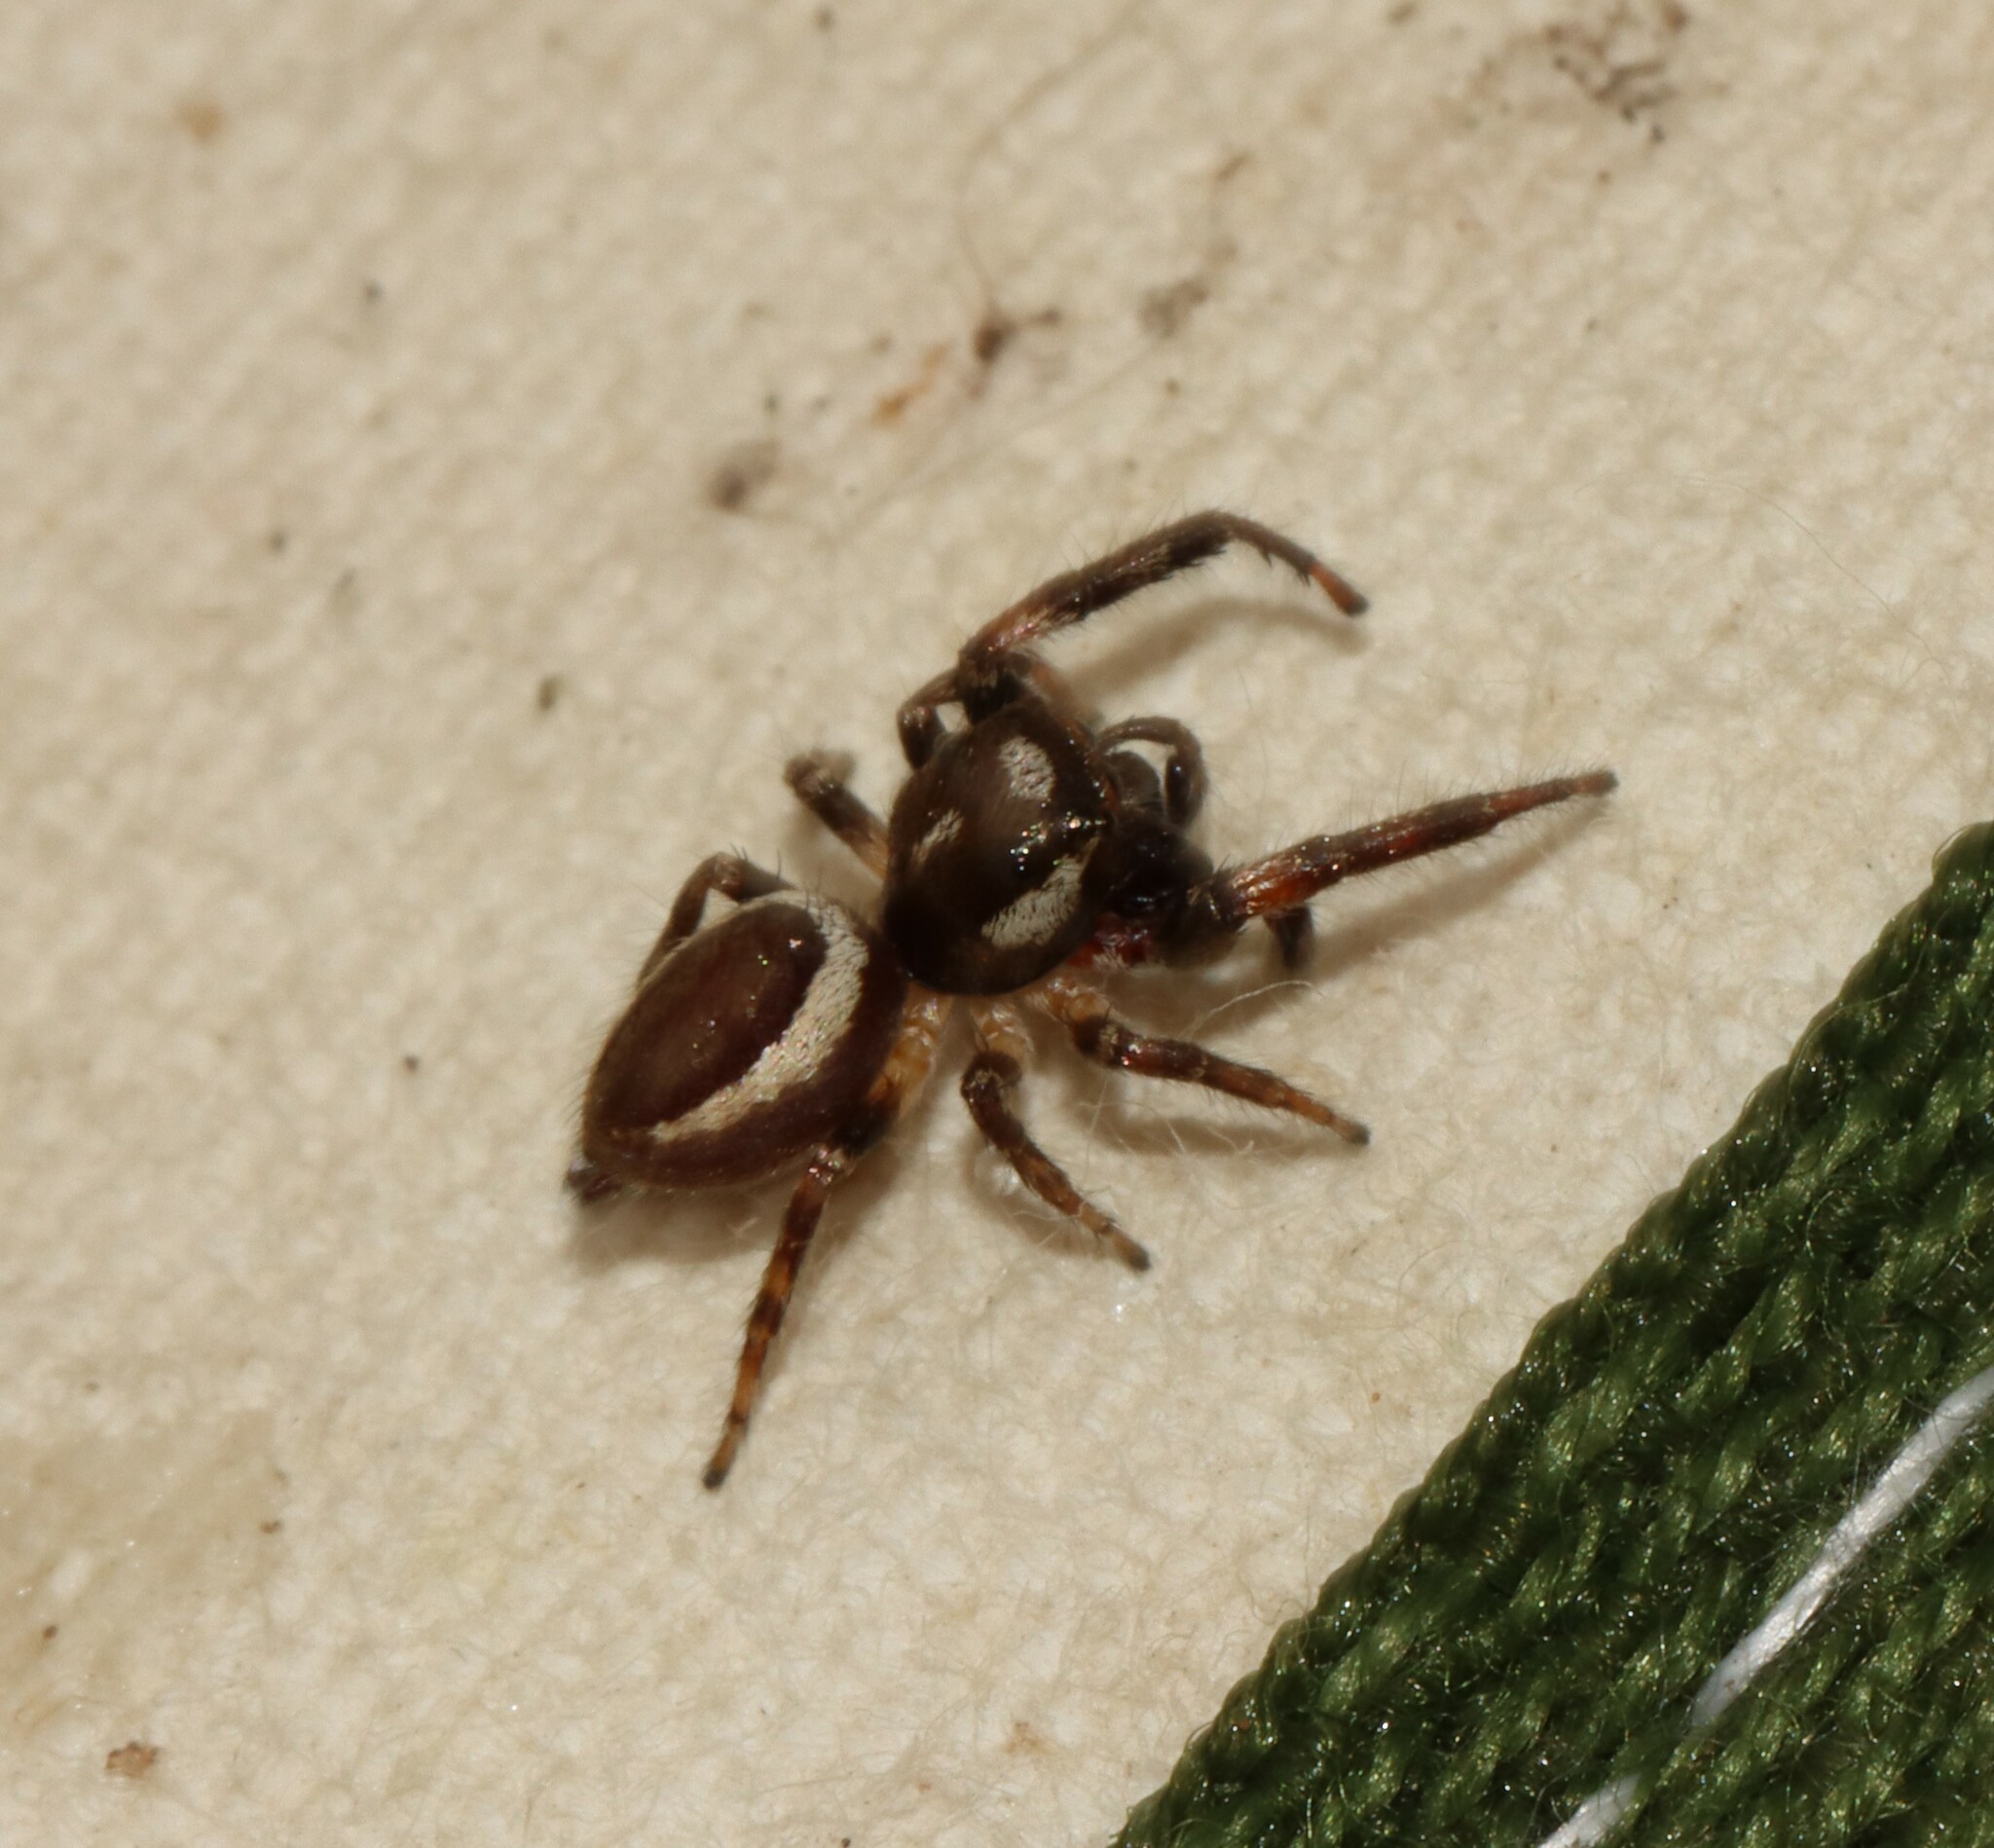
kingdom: Animalia
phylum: Arthropoda
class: Arachnida
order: Araneae
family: Salticidae
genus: Eris
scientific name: Eris militaris
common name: Bronze jumper
